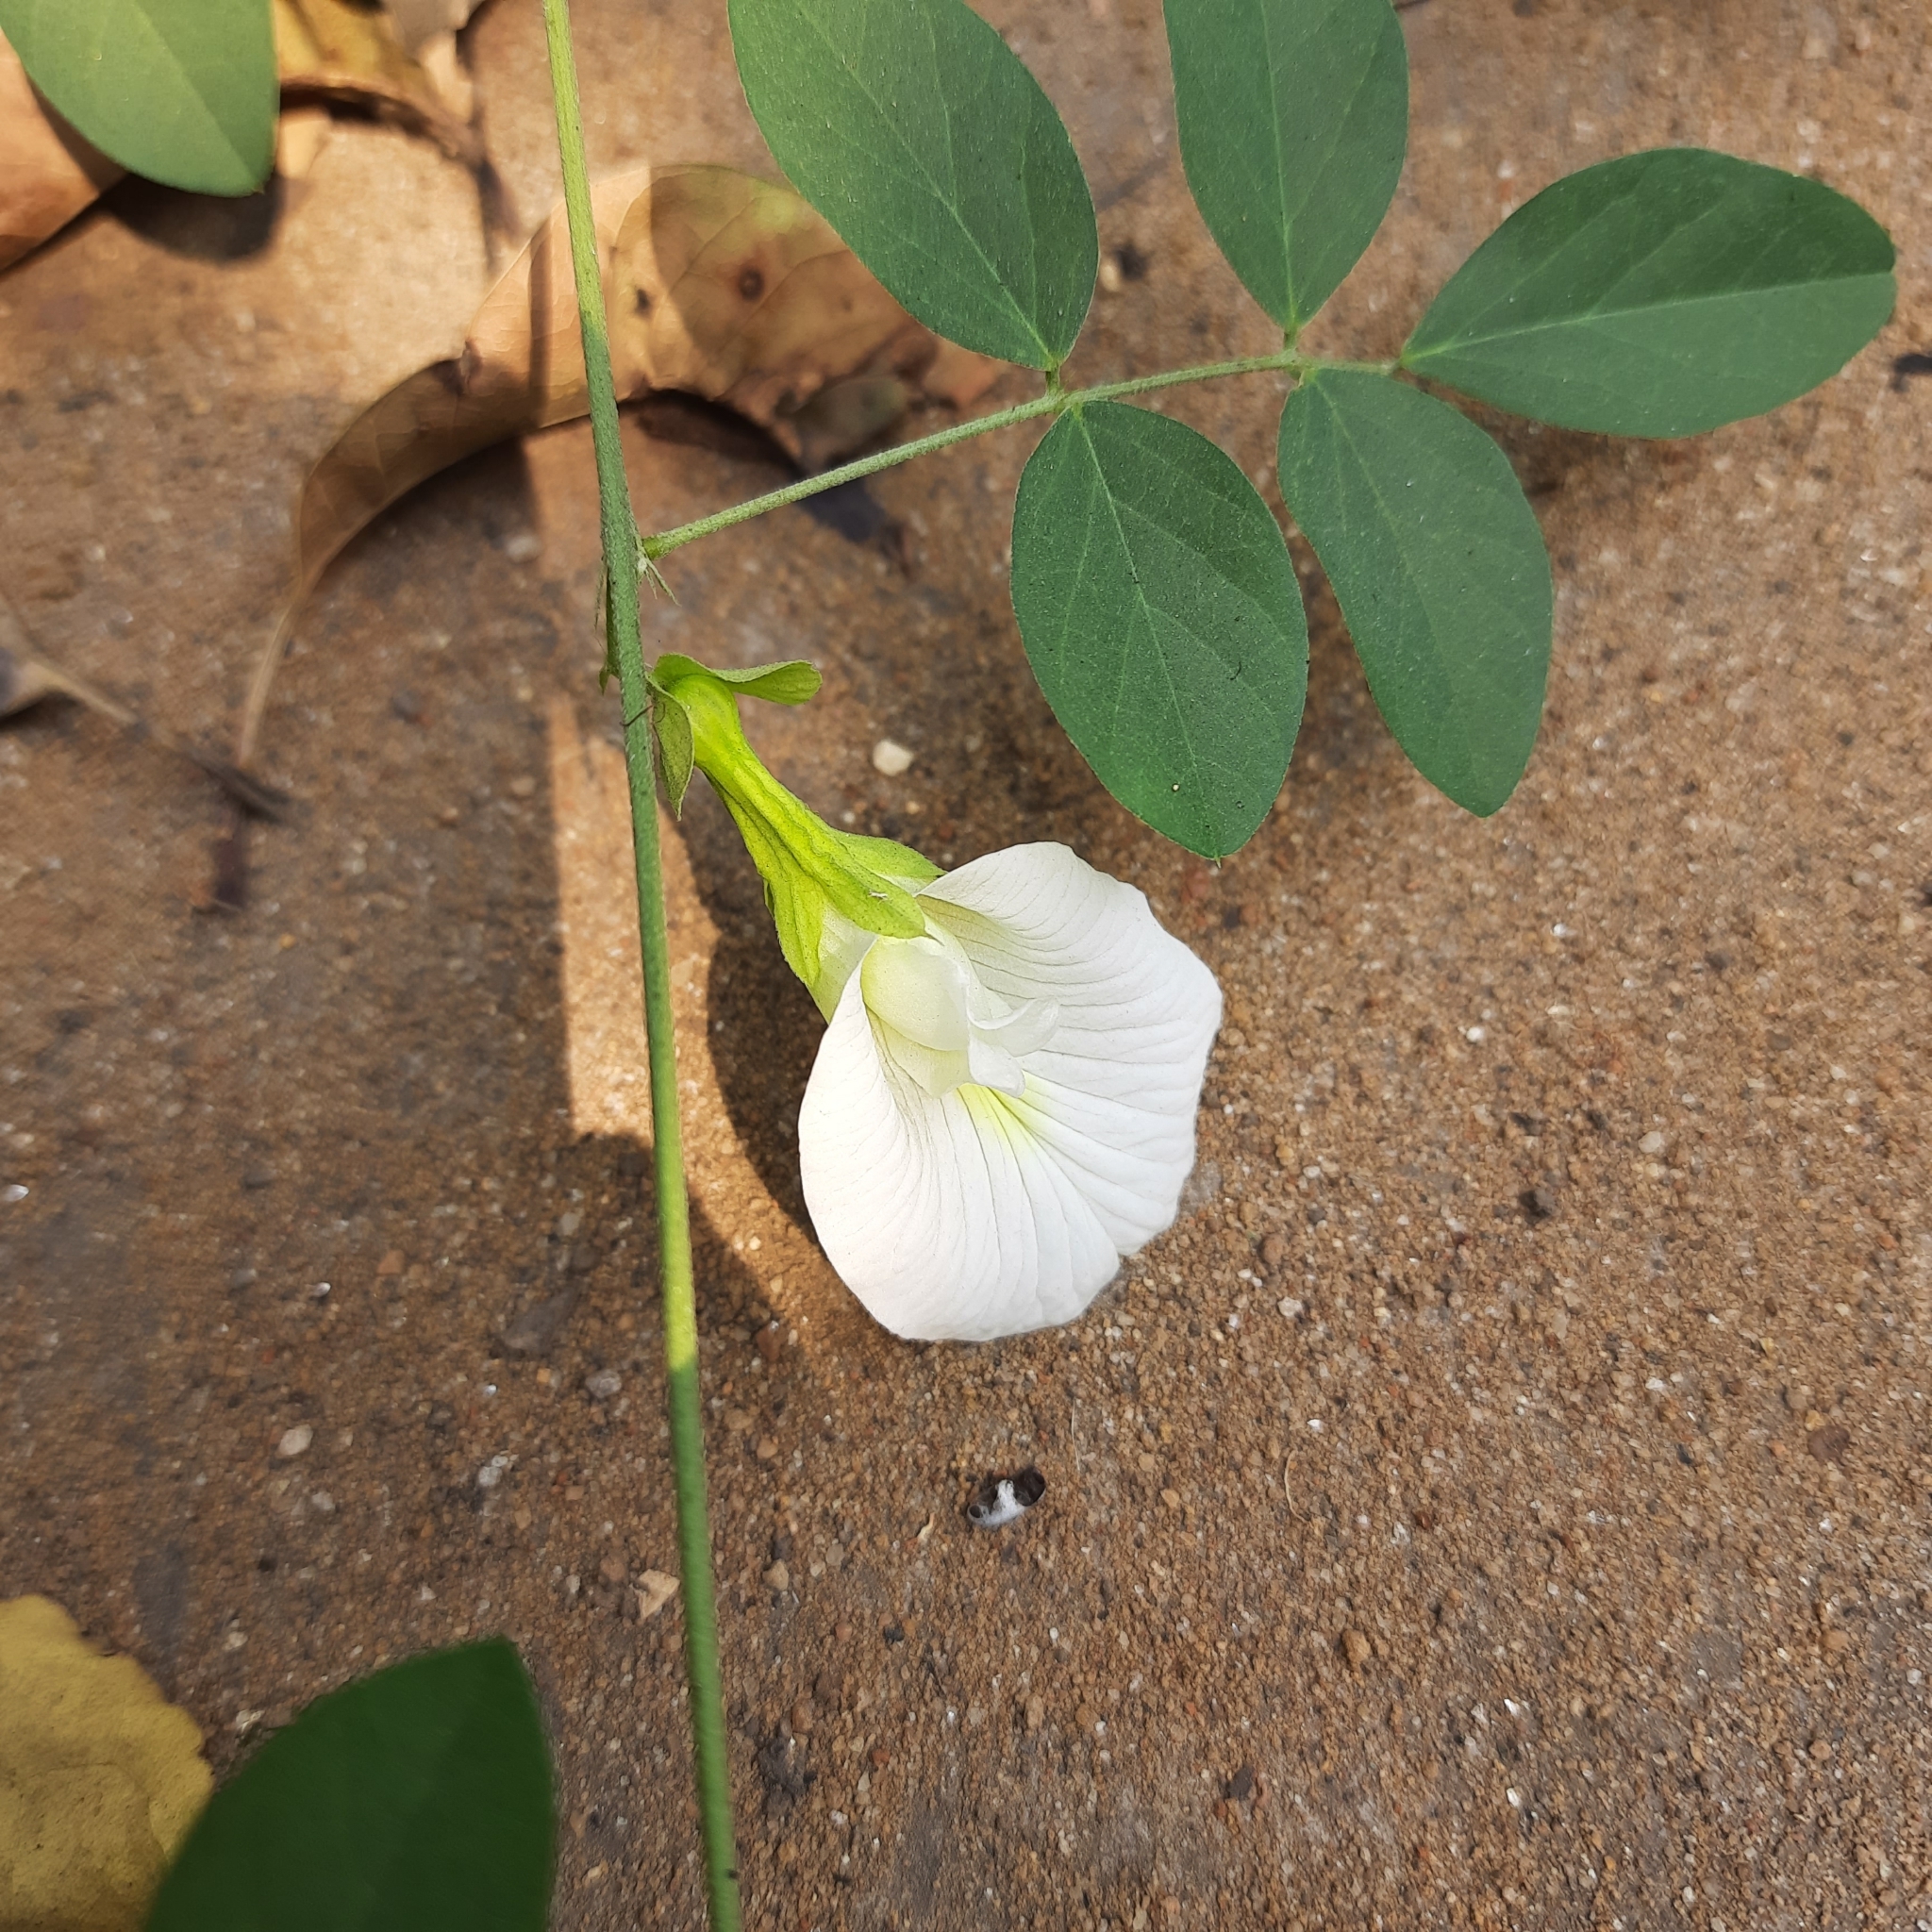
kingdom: Plantae
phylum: Tracheophyta
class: Magnoliopsida
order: Fabales
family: Fabaceae
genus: Clitoria
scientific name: Clitoria ternatea
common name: Asian pigeonwings
